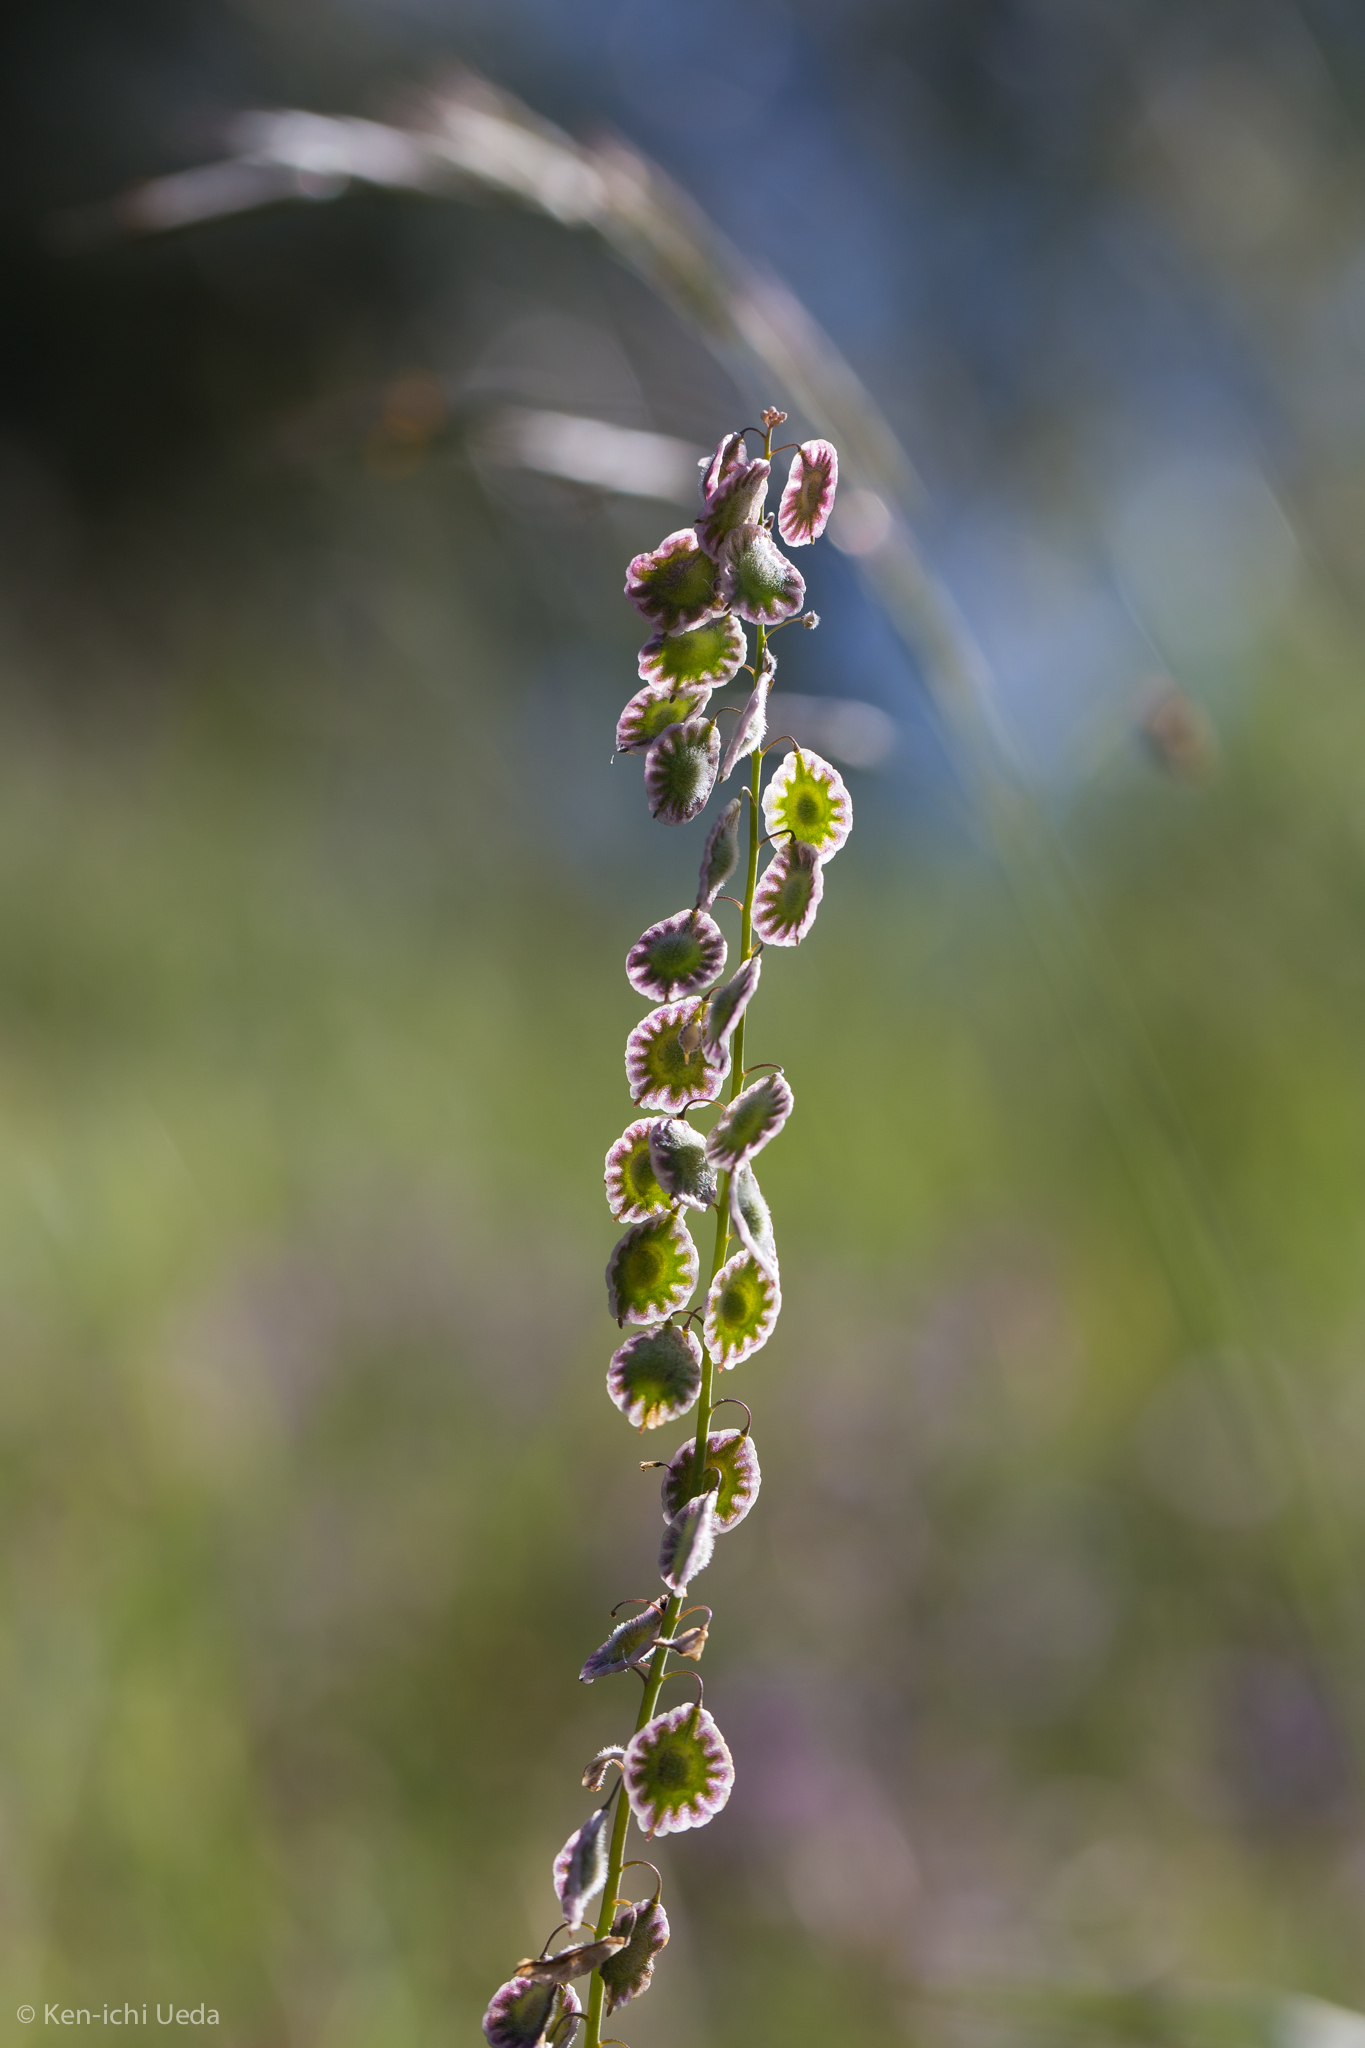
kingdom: Plantae
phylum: Tracheophyta
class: Magnoliopsida
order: Brassicales
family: Brassicaceae
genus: Thysanocarpus
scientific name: Thysanocarpus curvipes
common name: Sand fringepod
